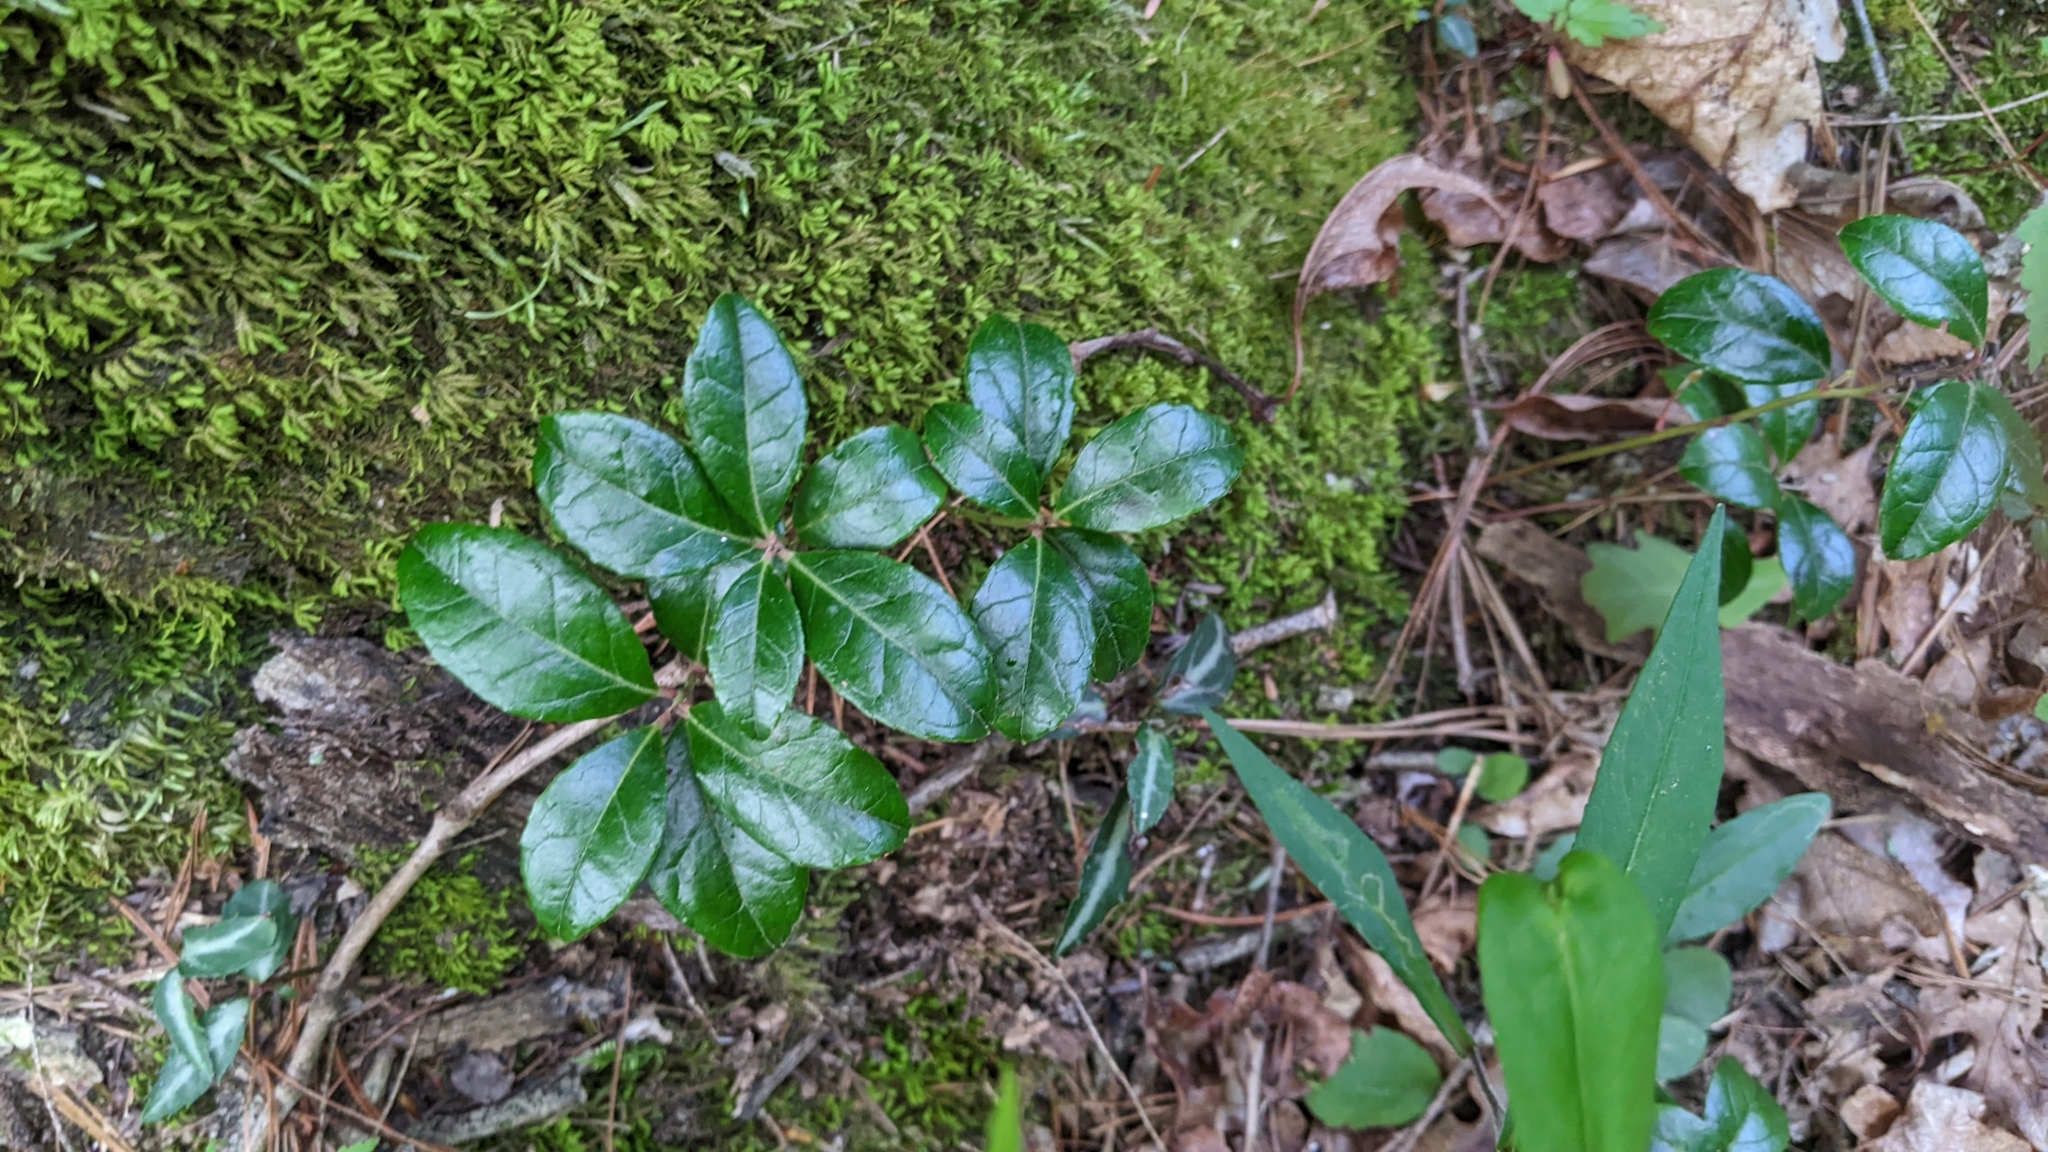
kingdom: Plantae
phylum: Tracheophyta
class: Magnoliopsida
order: Ericales
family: Ericaceae
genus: Gaultheria
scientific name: Gaultheria procumbens
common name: Checkerberry
